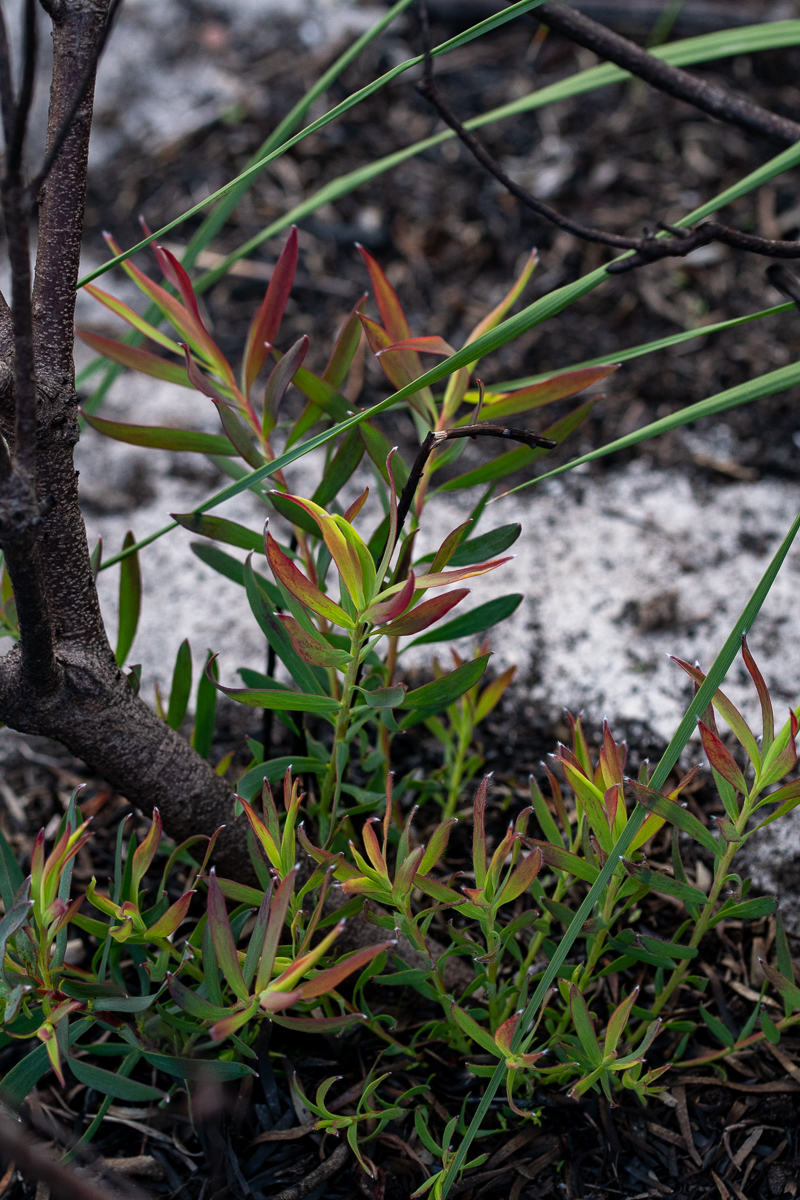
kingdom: Plantae
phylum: Tracheophyta
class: Magnoliopsida
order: Proteales
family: Proteaceae
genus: Leucadendron
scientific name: Leucadendron salignum
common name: Common sunshine conebush
